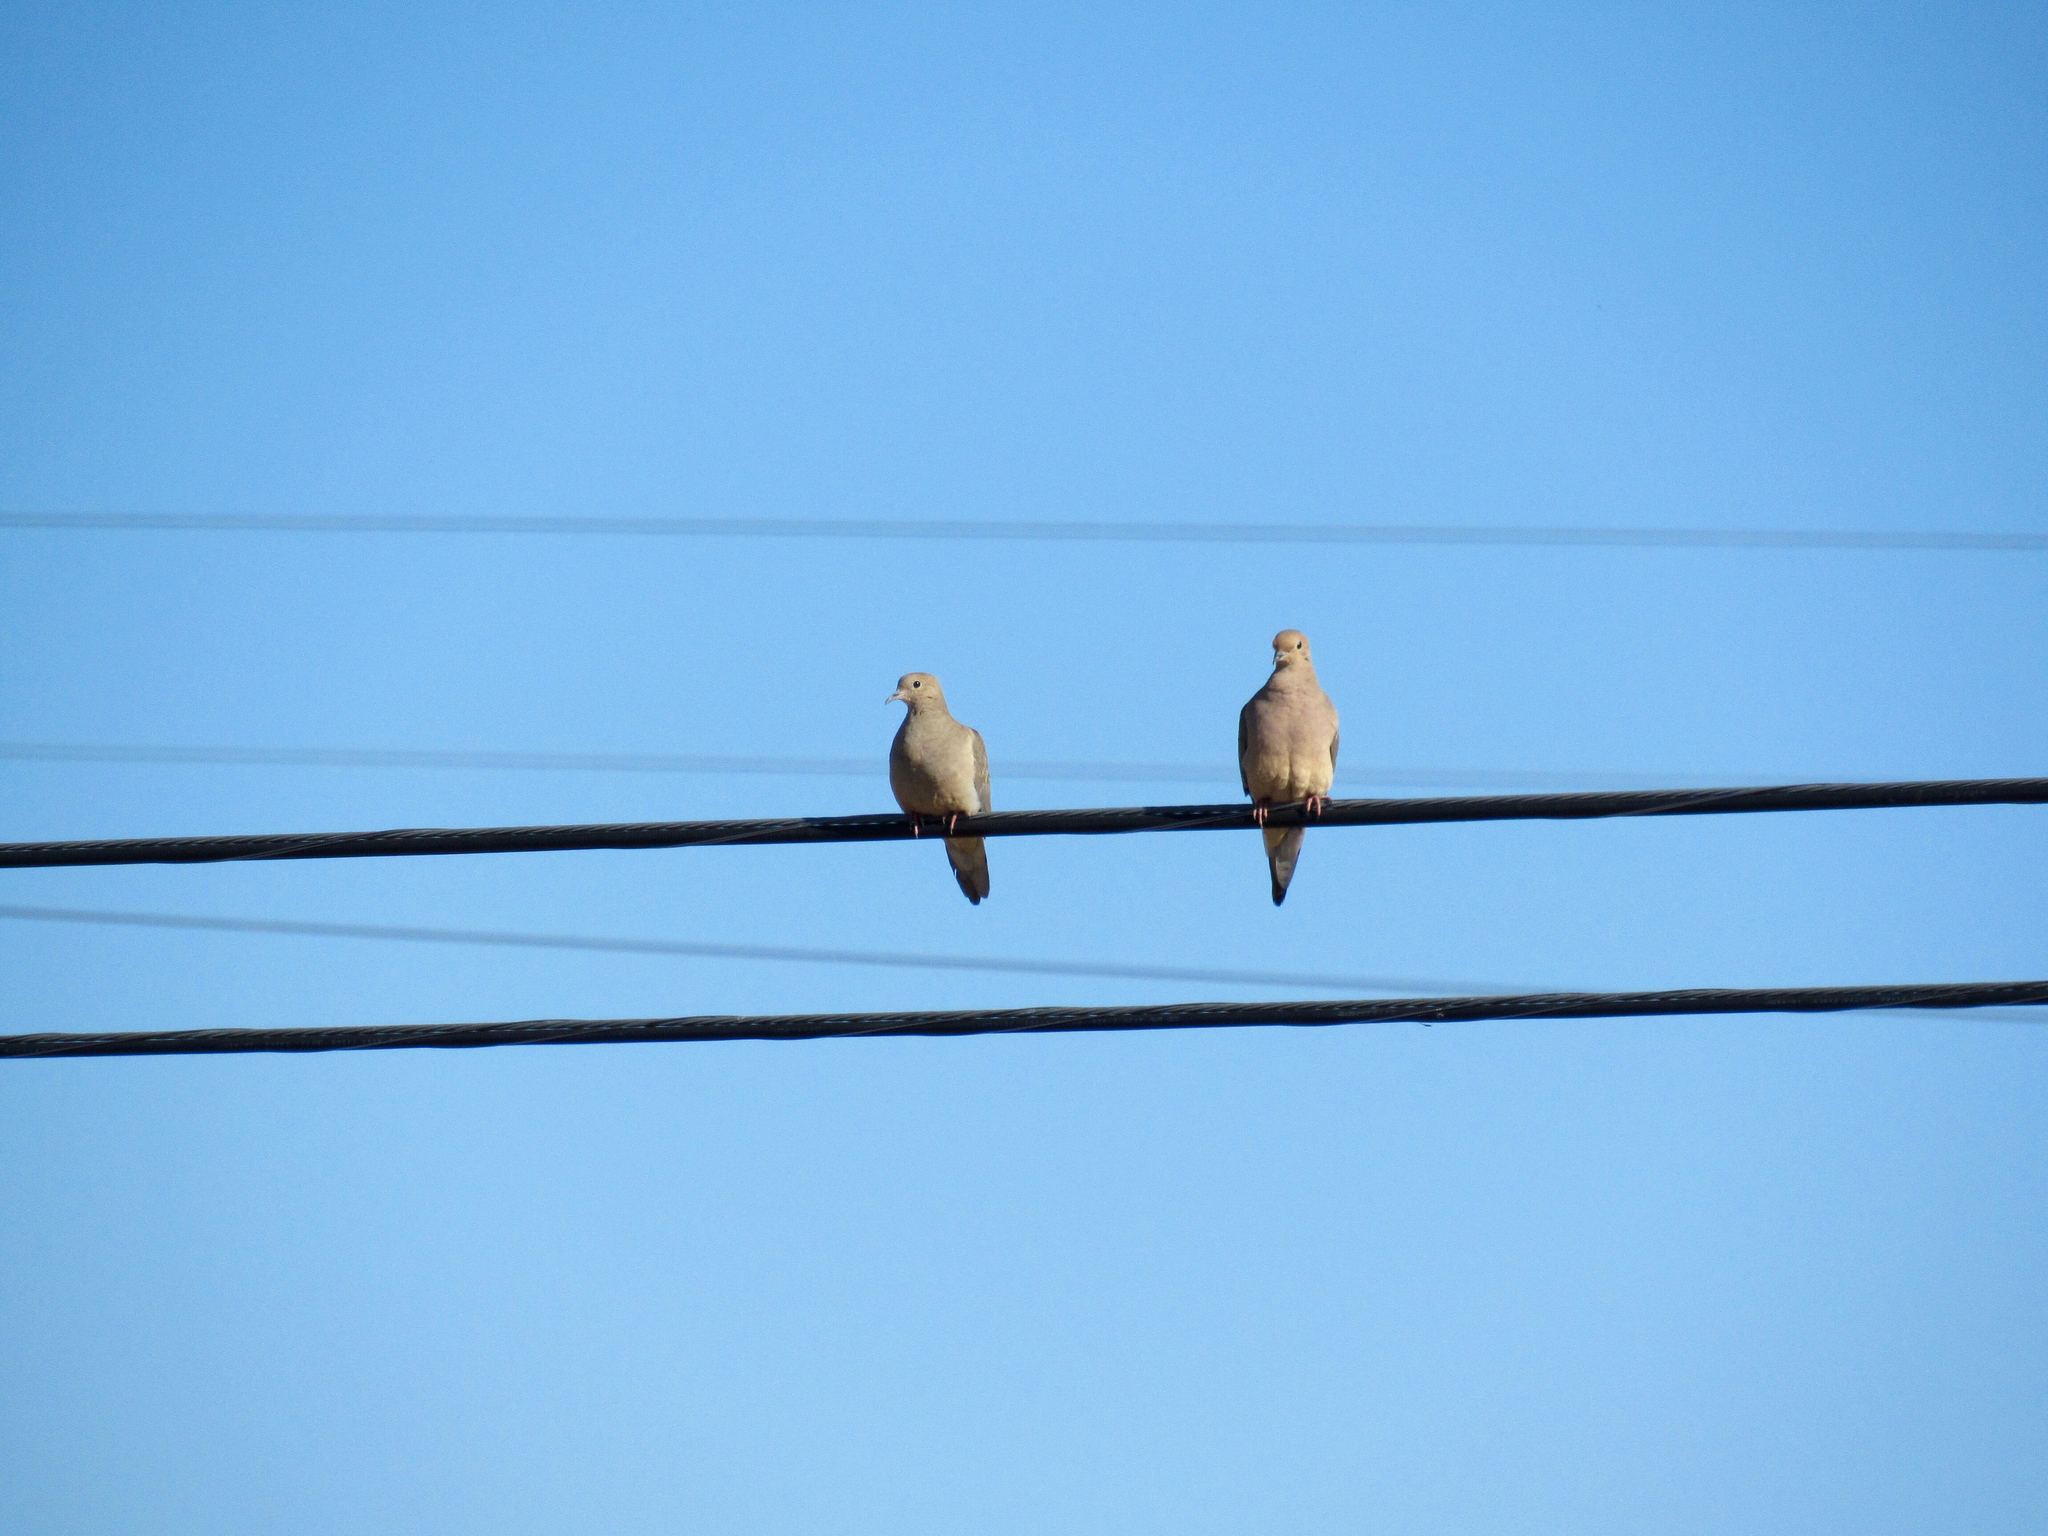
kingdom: Animalia
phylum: Chordata
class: Aves
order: Columbiformes
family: Columbidae
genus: Zenaida
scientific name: Zenaida macroura
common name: Mourning dove
